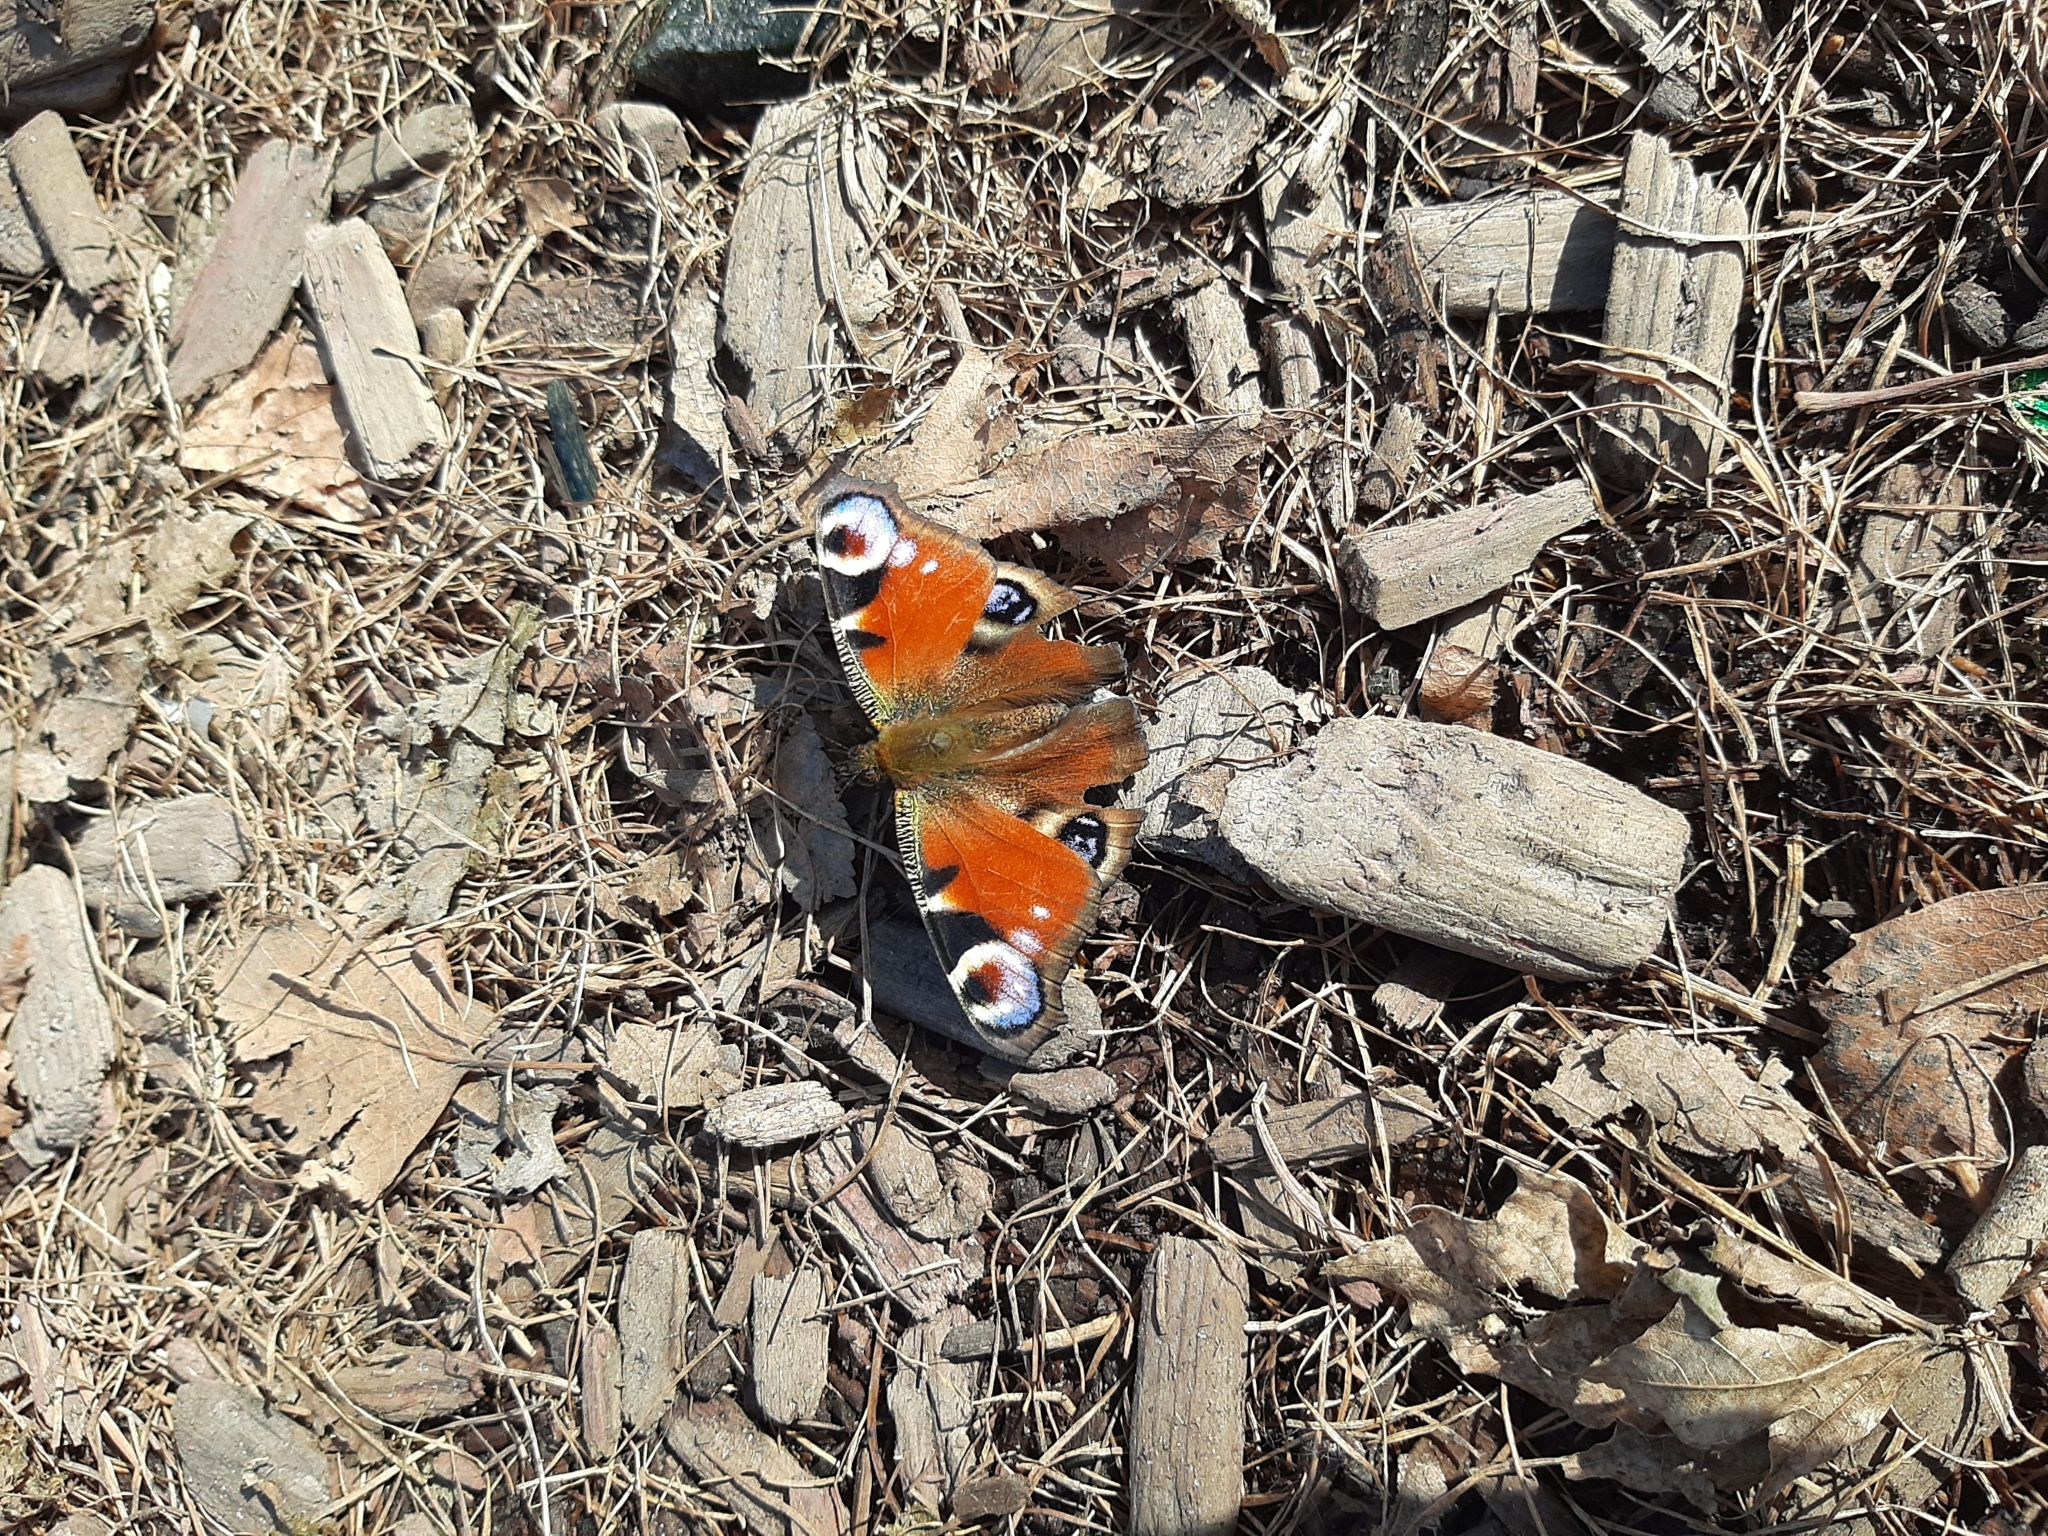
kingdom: Animalia
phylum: Arthropoda
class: Insecta
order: Lepidoptera
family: Nymphalidae
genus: Aglais
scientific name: Aglais io
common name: Peacock
